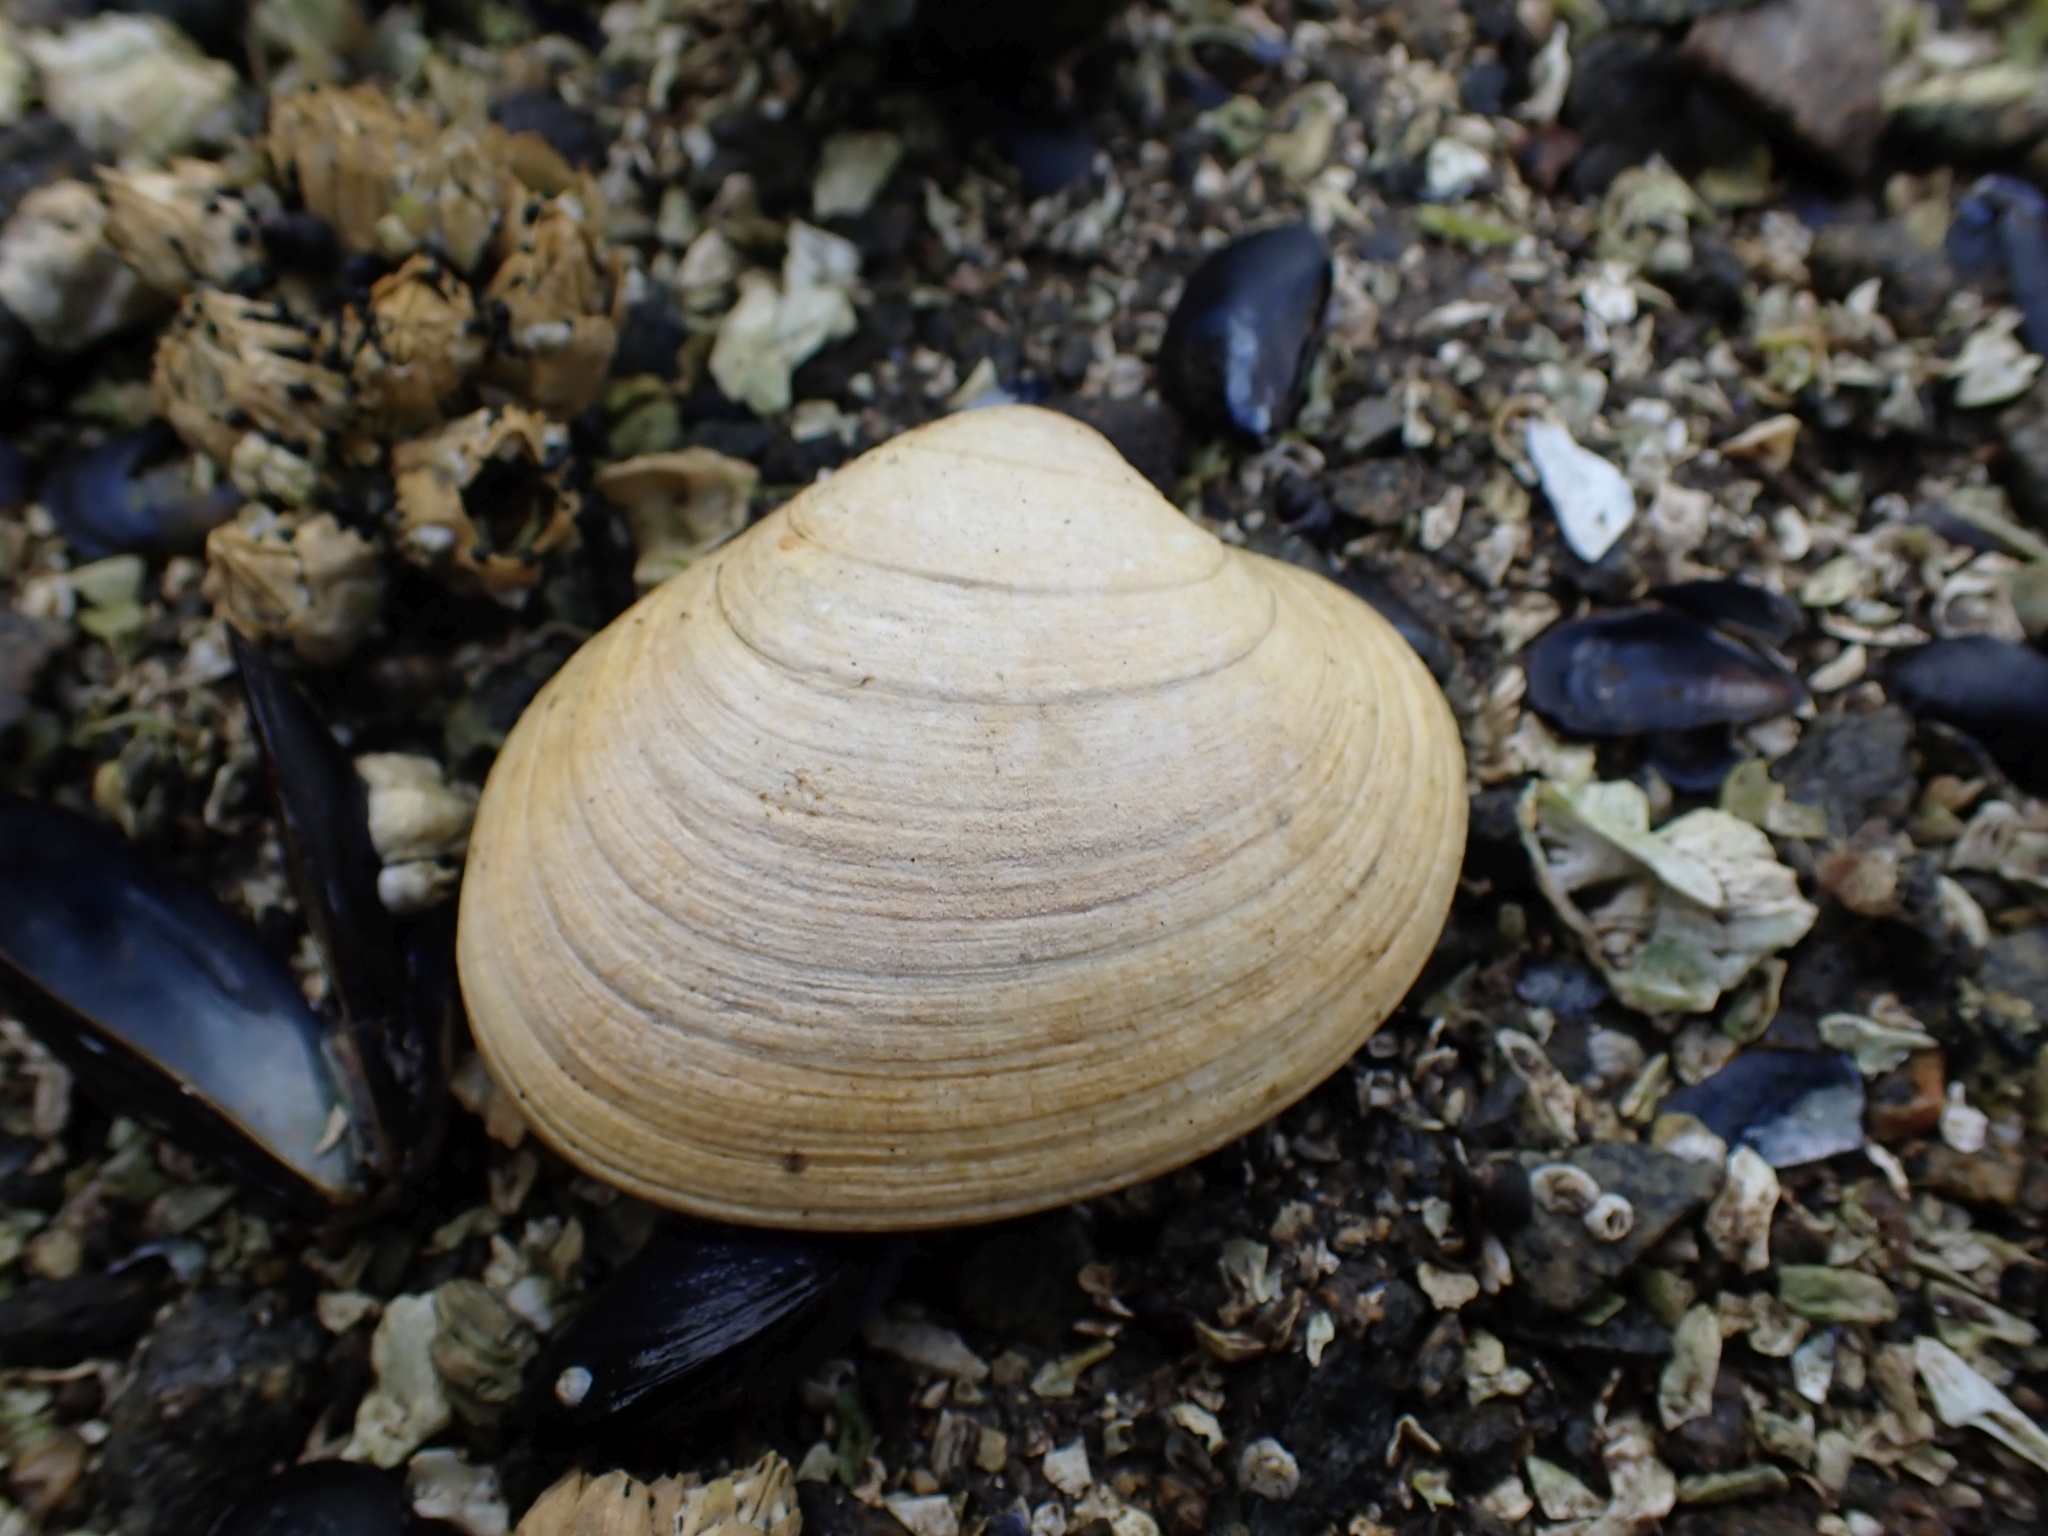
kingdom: Animalia
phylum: Mollusca
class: Bivalvia
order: Venerida
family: Veneridae
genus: Saxidomus
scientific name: Saxidomus gigantea
